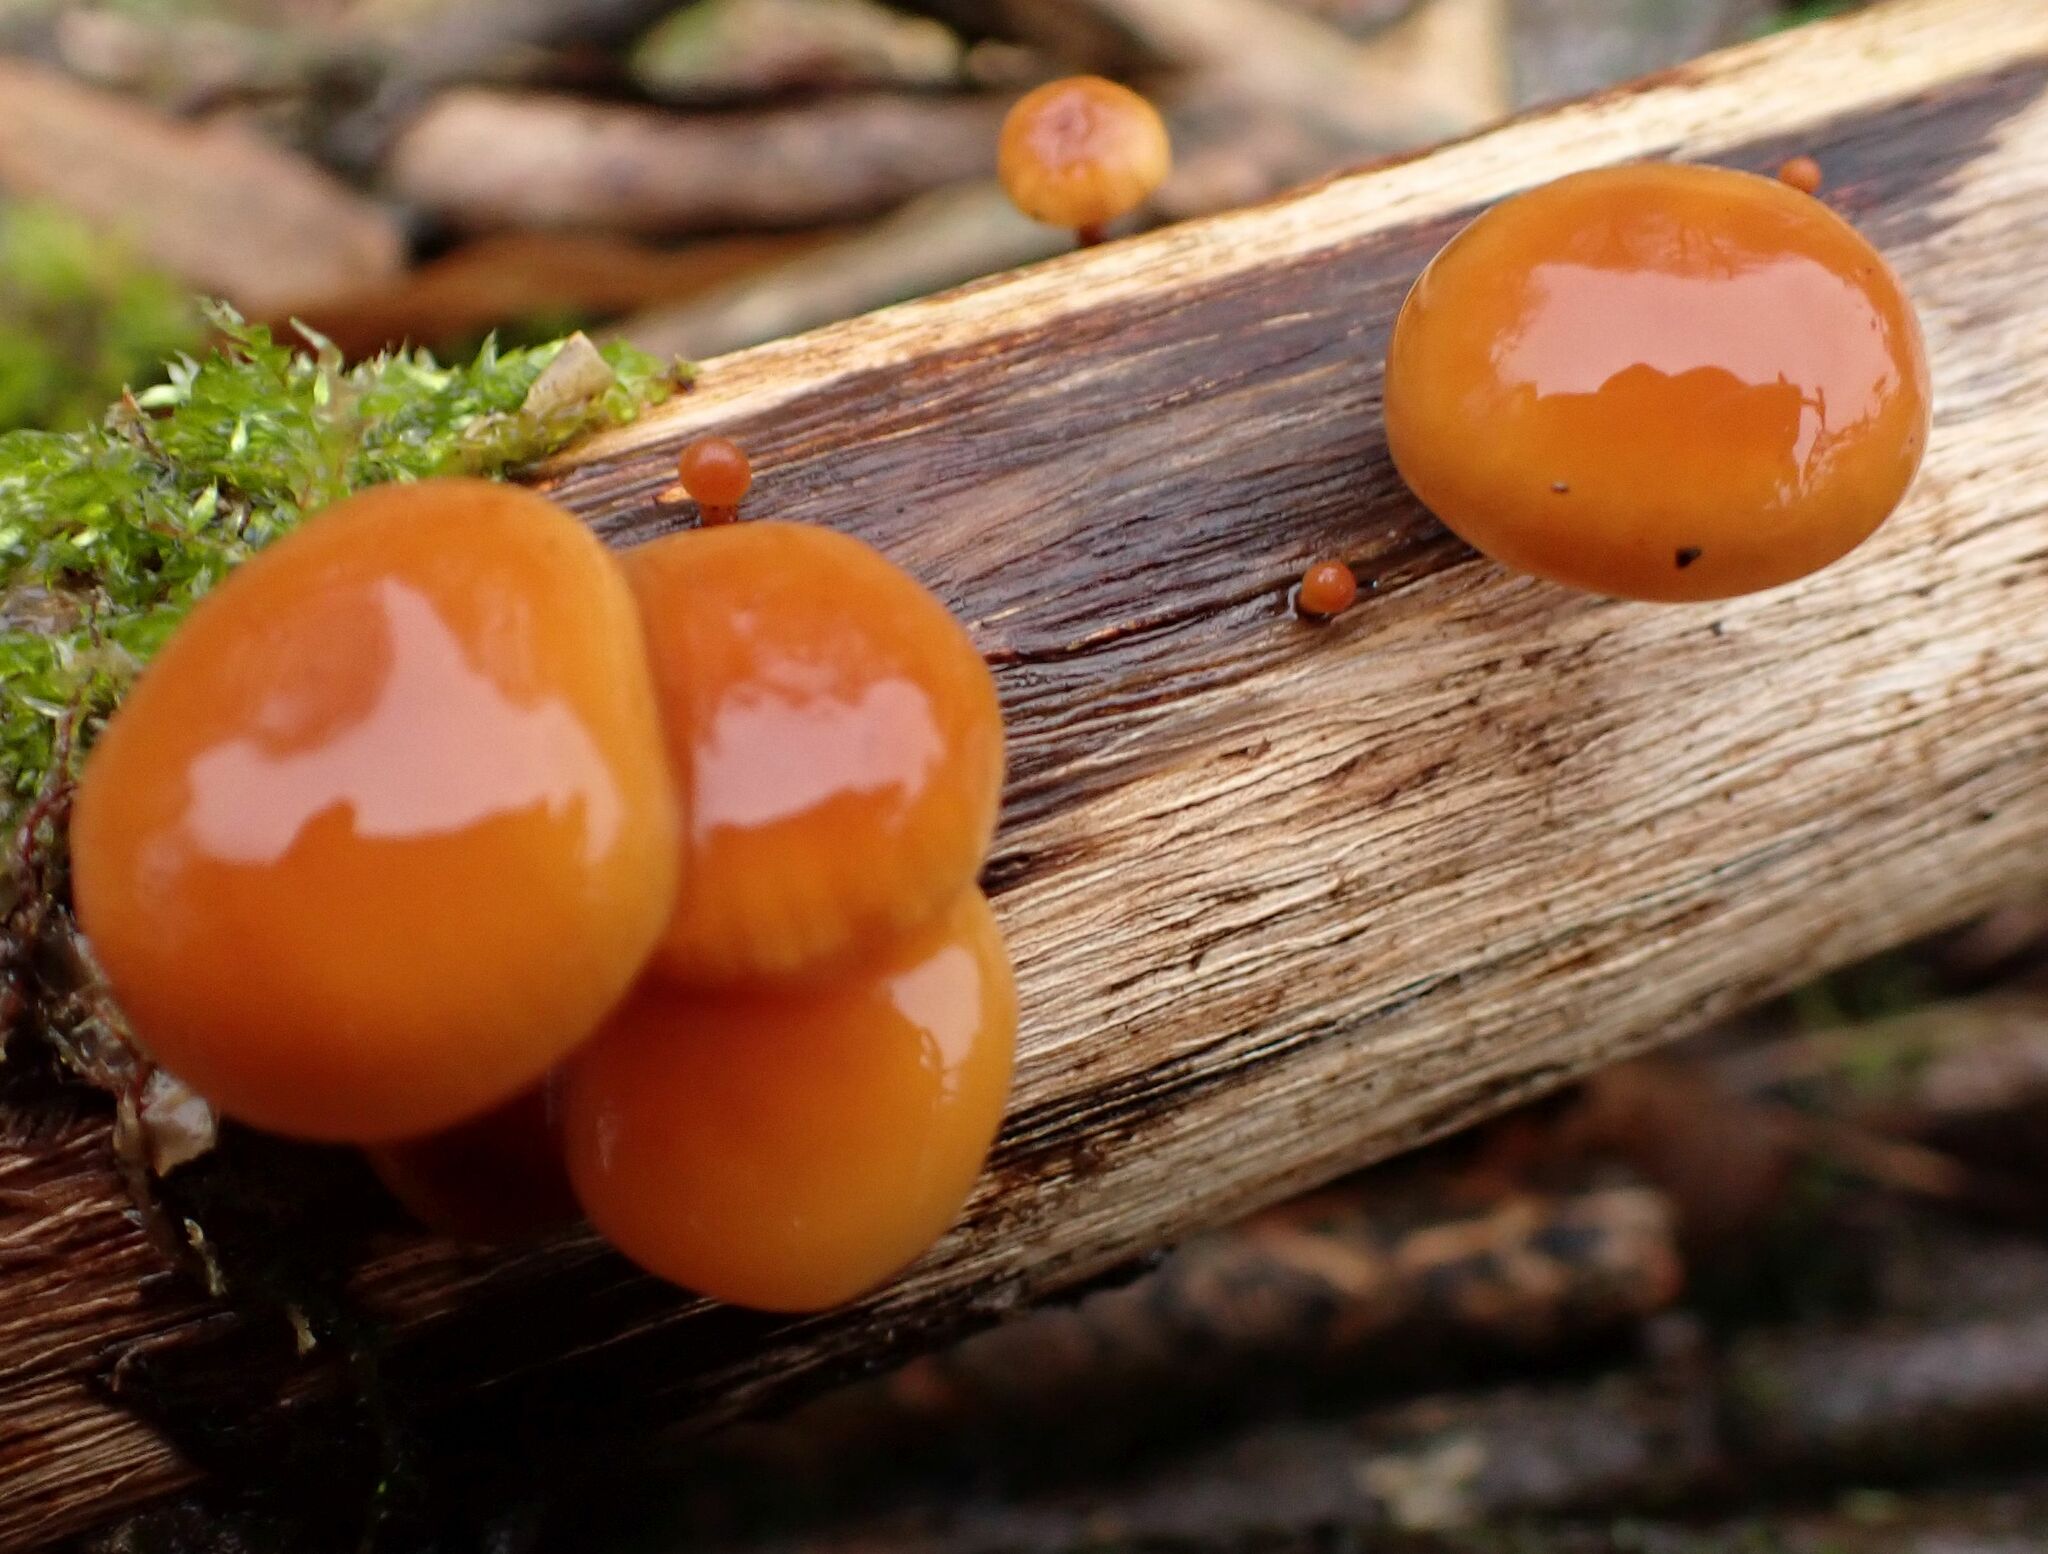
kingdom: Fungi
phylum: Basidiomycota
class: Agaricomycetes
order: Agaricales
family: Physalacriaceae
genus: Flammulina
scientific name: Flammulina
